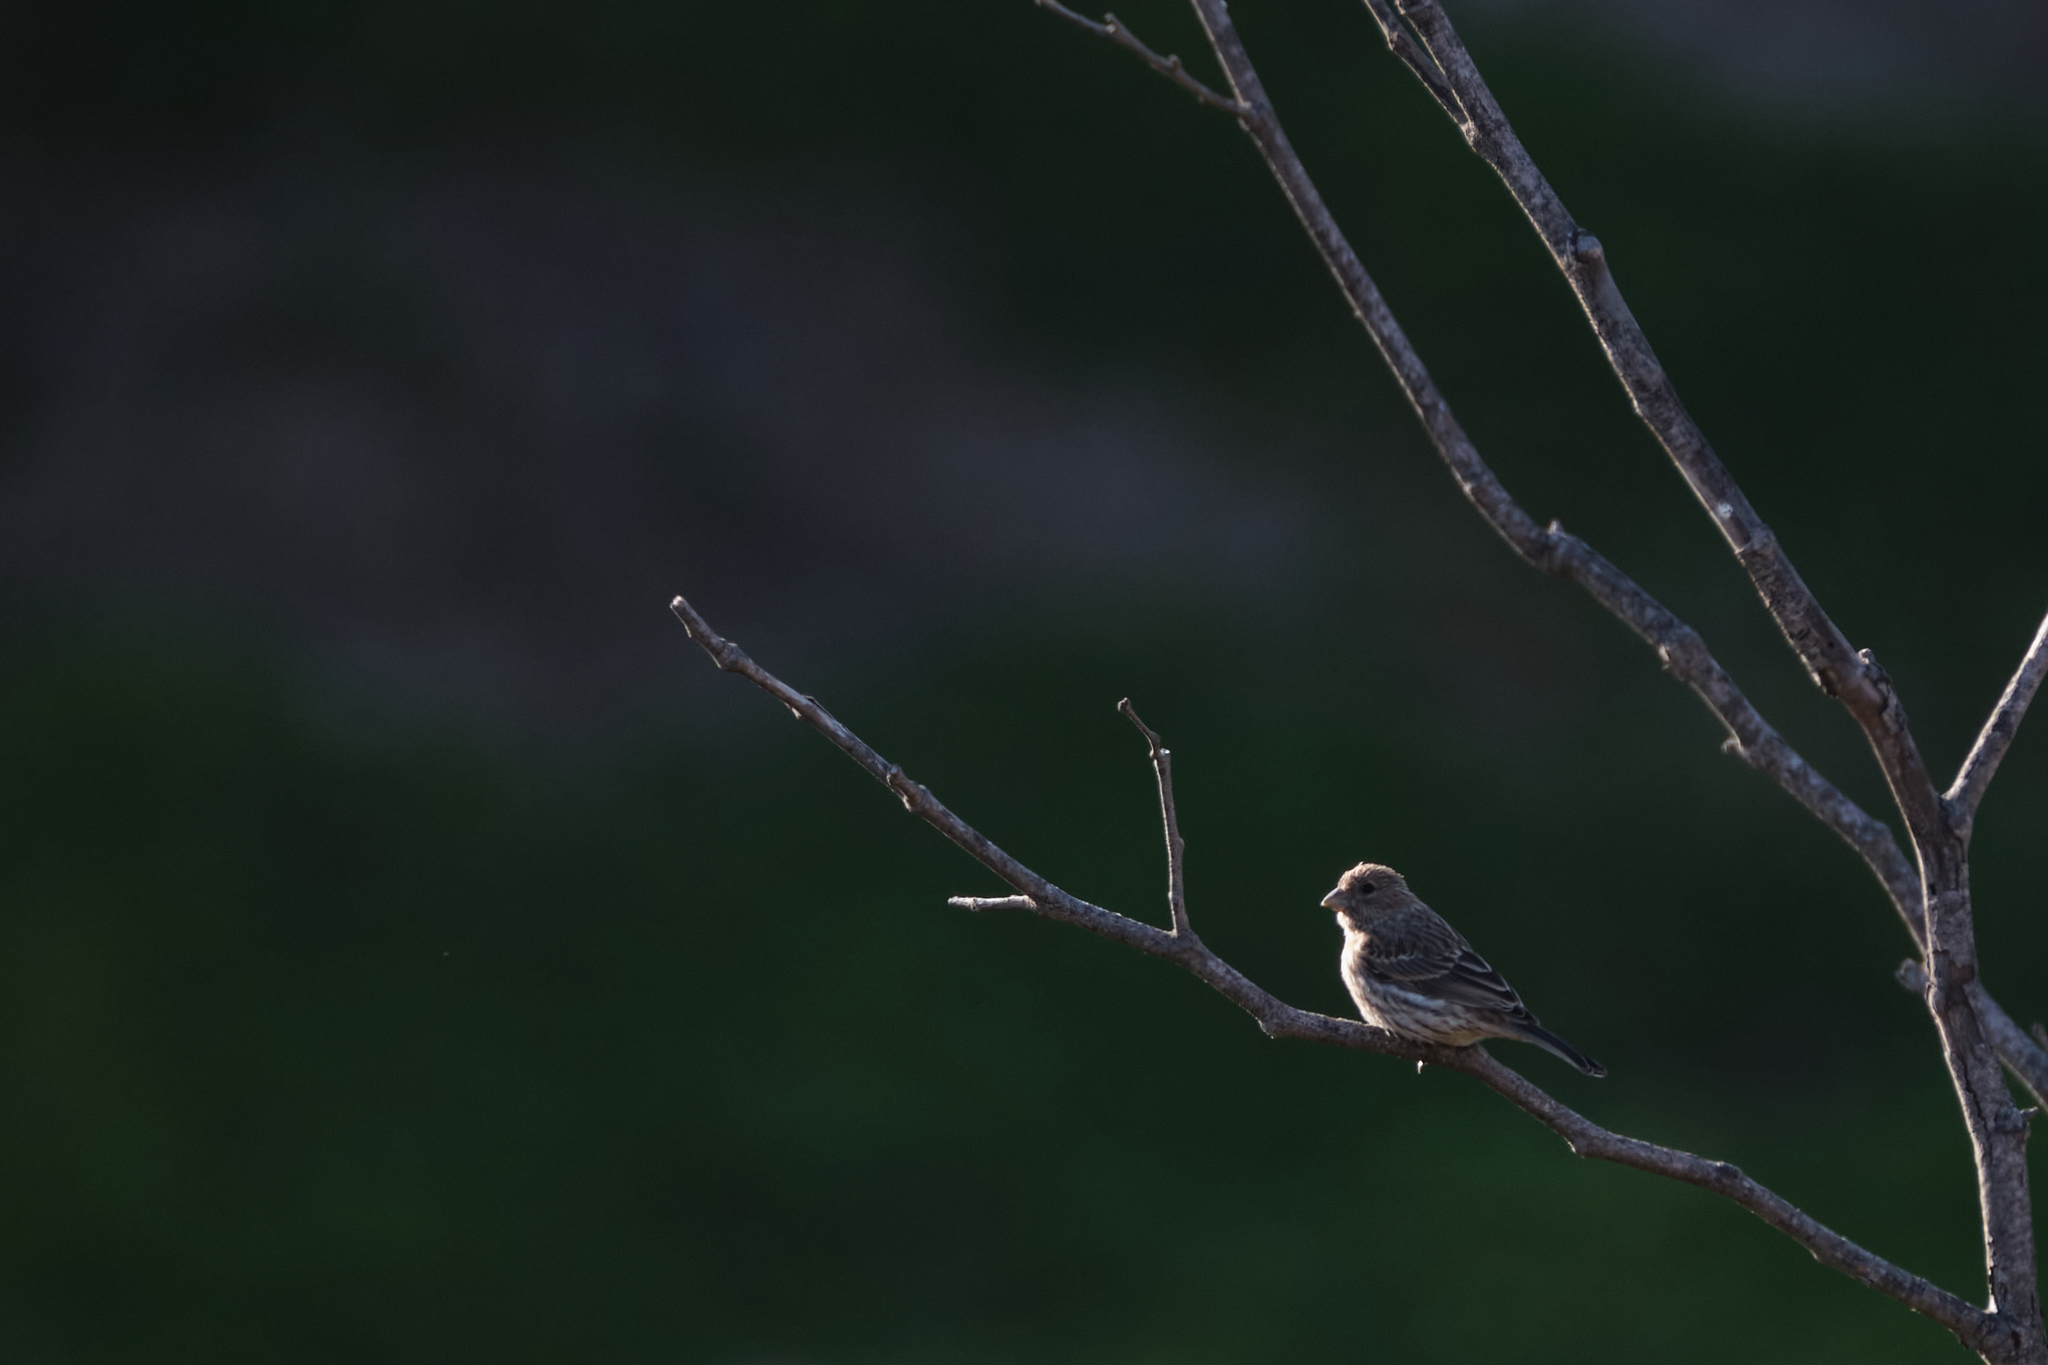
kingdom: Animalia
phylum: Chordata
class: Aves
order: Passeriformes
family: Fringillidae
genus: Haemorhous
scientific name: Haemorhous mexicanus
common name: House finch
